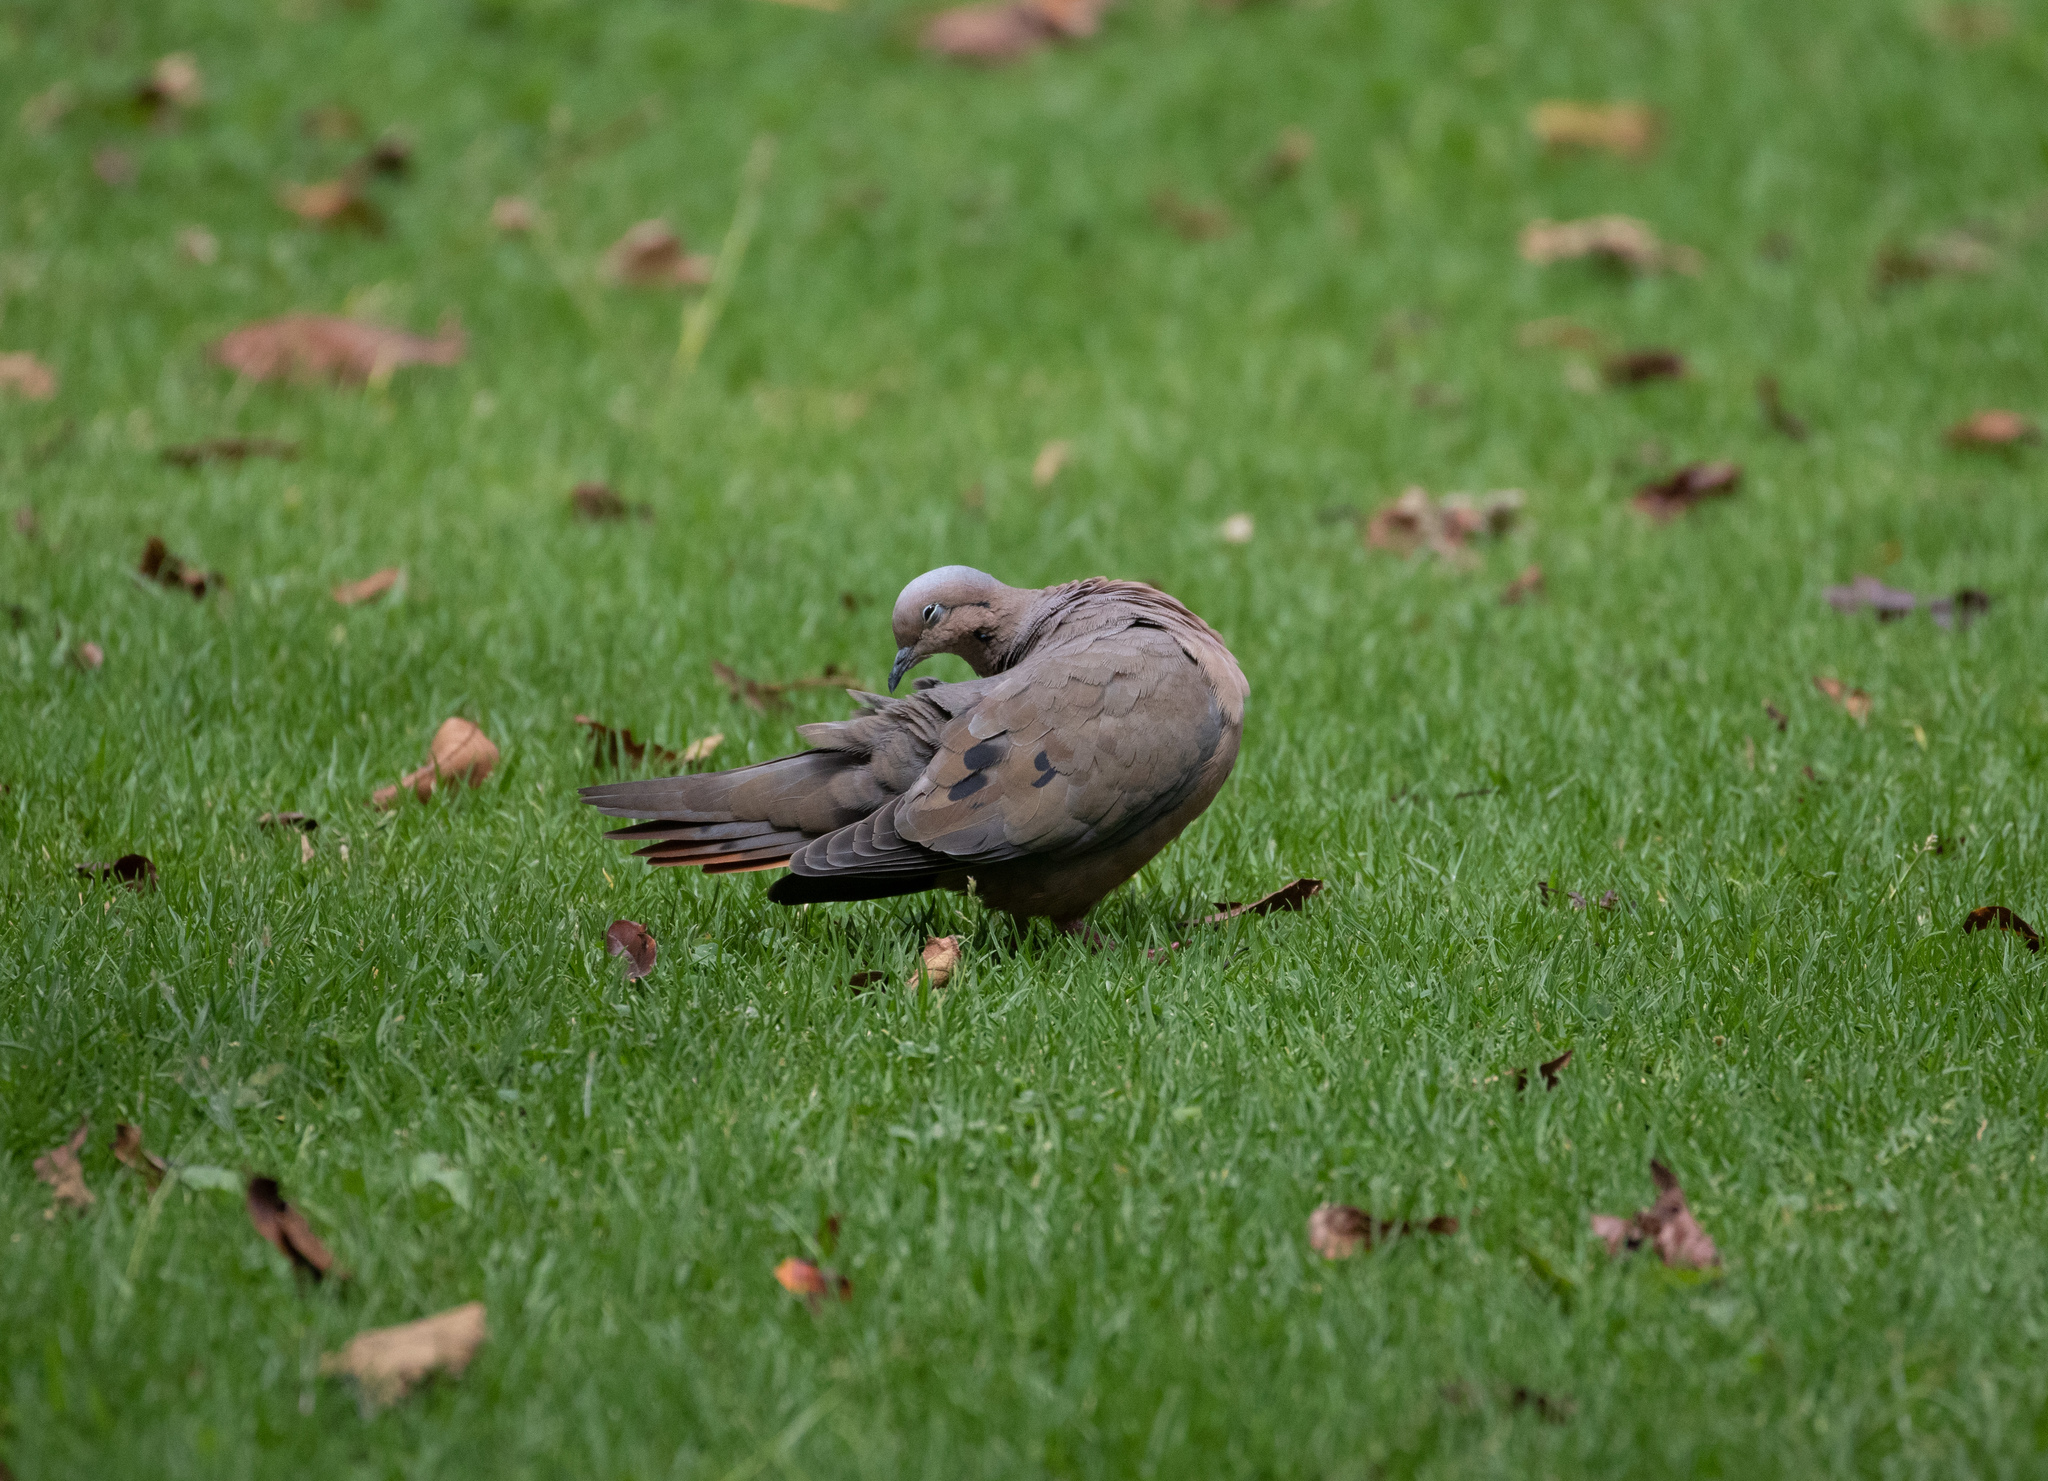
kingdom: Animalia
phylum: Chordata
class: Aves
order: Columbiformes
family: Columbidae
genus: Zenaida
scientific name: Zenaida auriculata
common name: Eared dove
